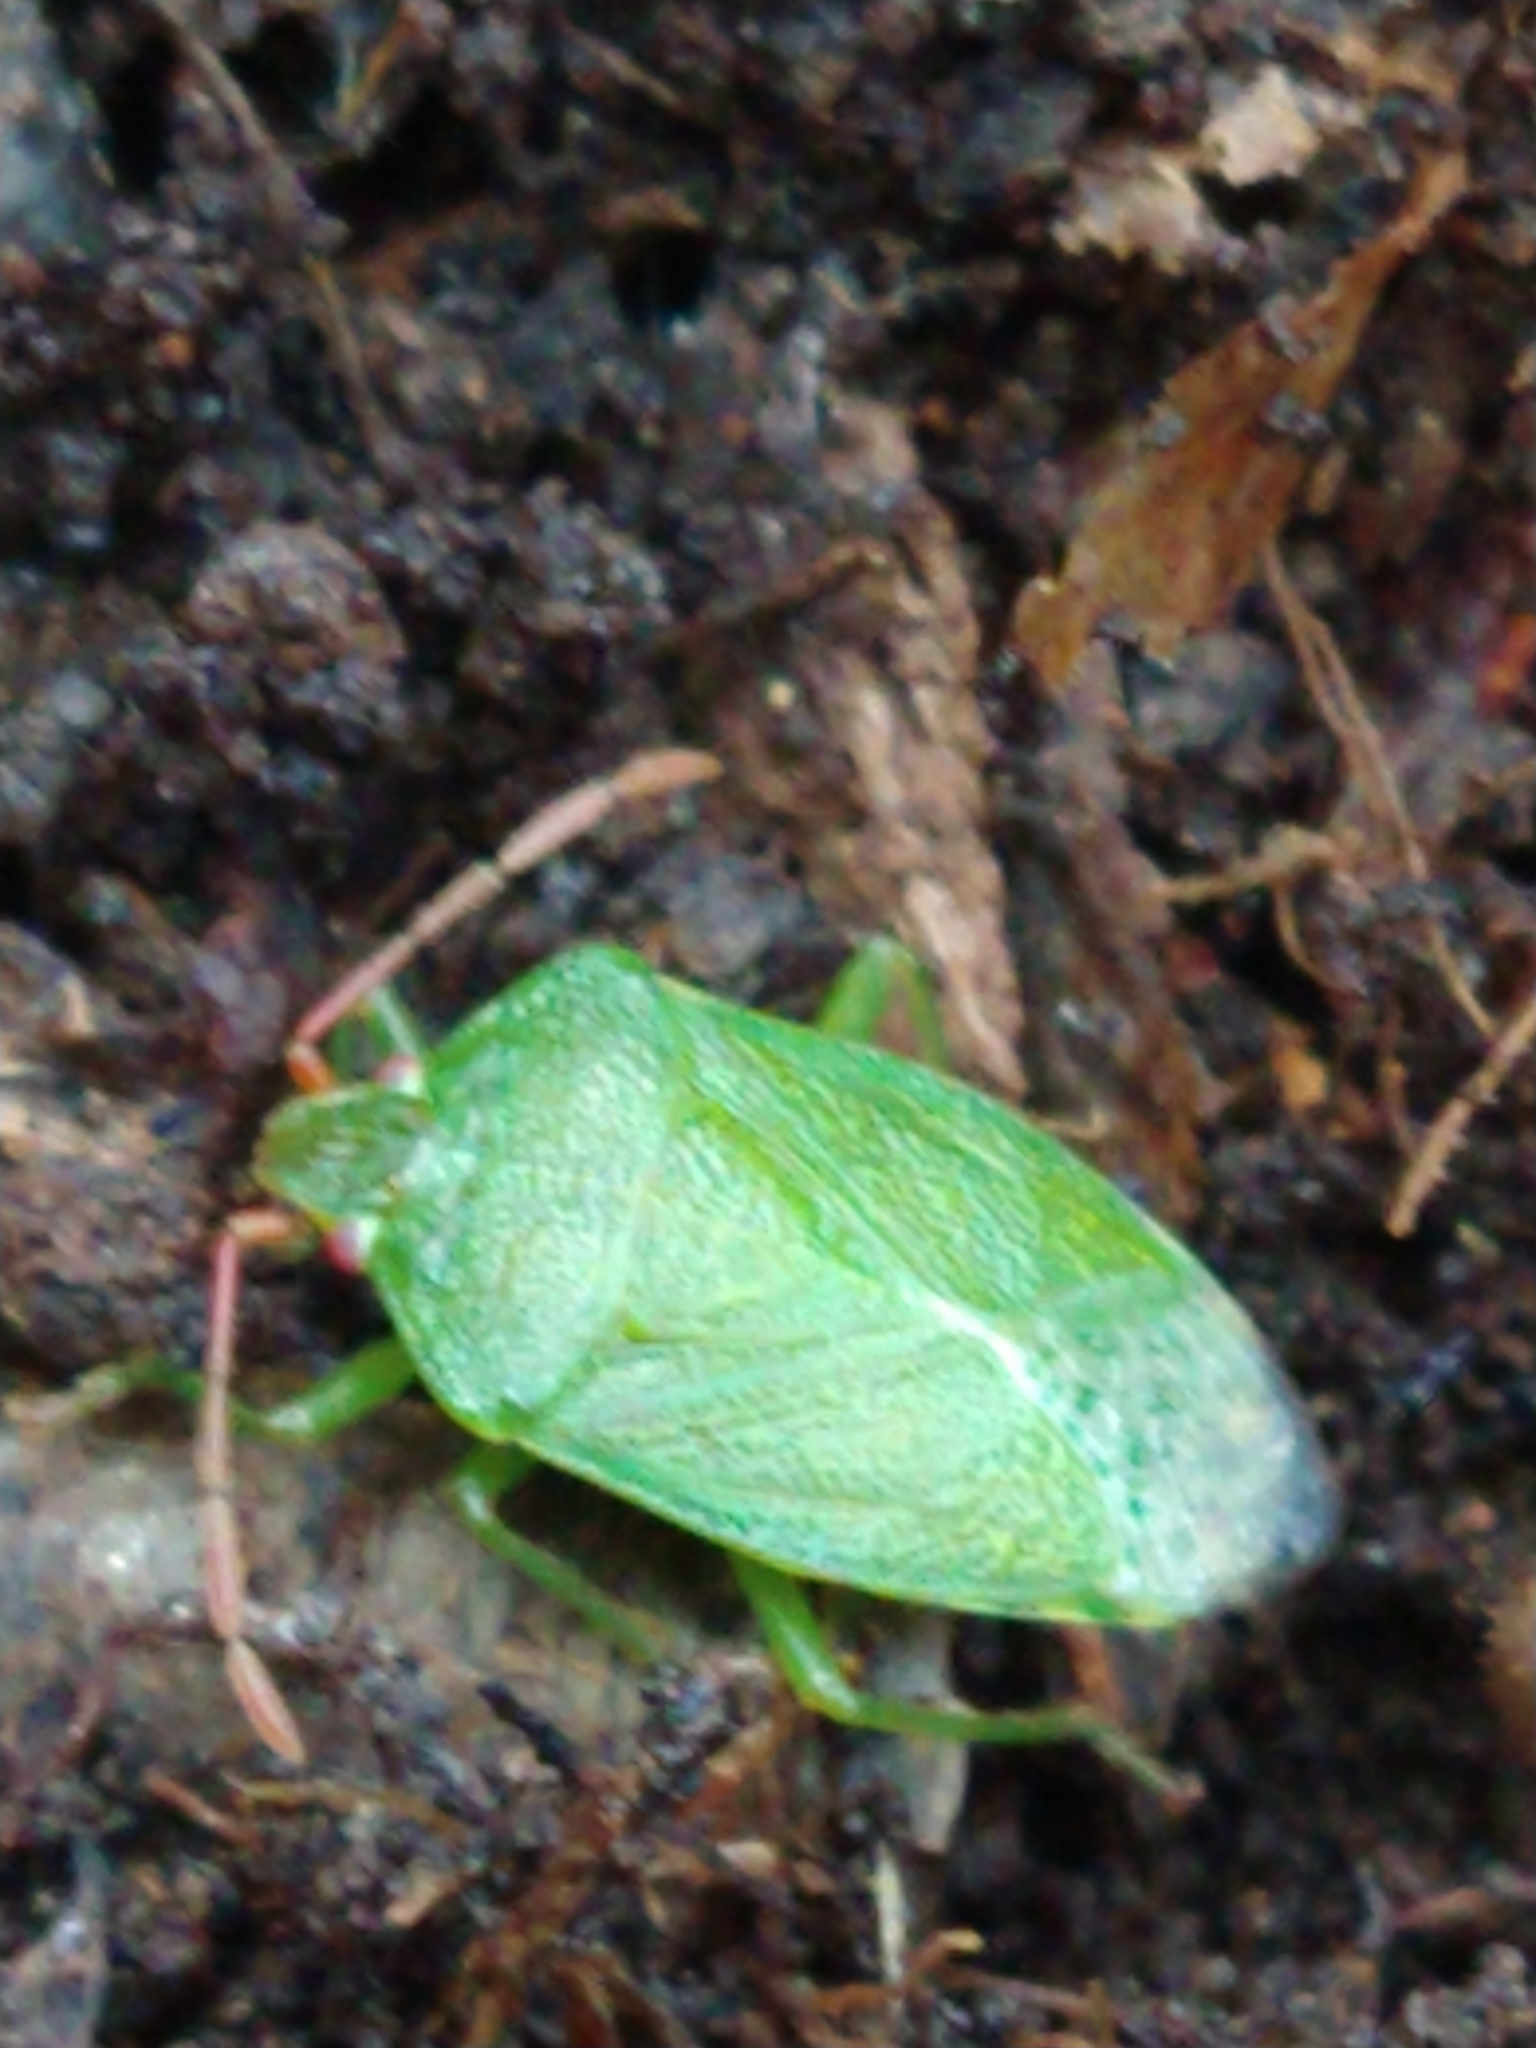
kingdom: Animalia
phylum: Arthropoda
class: Insecta
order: Hemiptera
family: Acanthosomatidae
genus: Sinopla
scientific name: Sinopla perpunctatus
